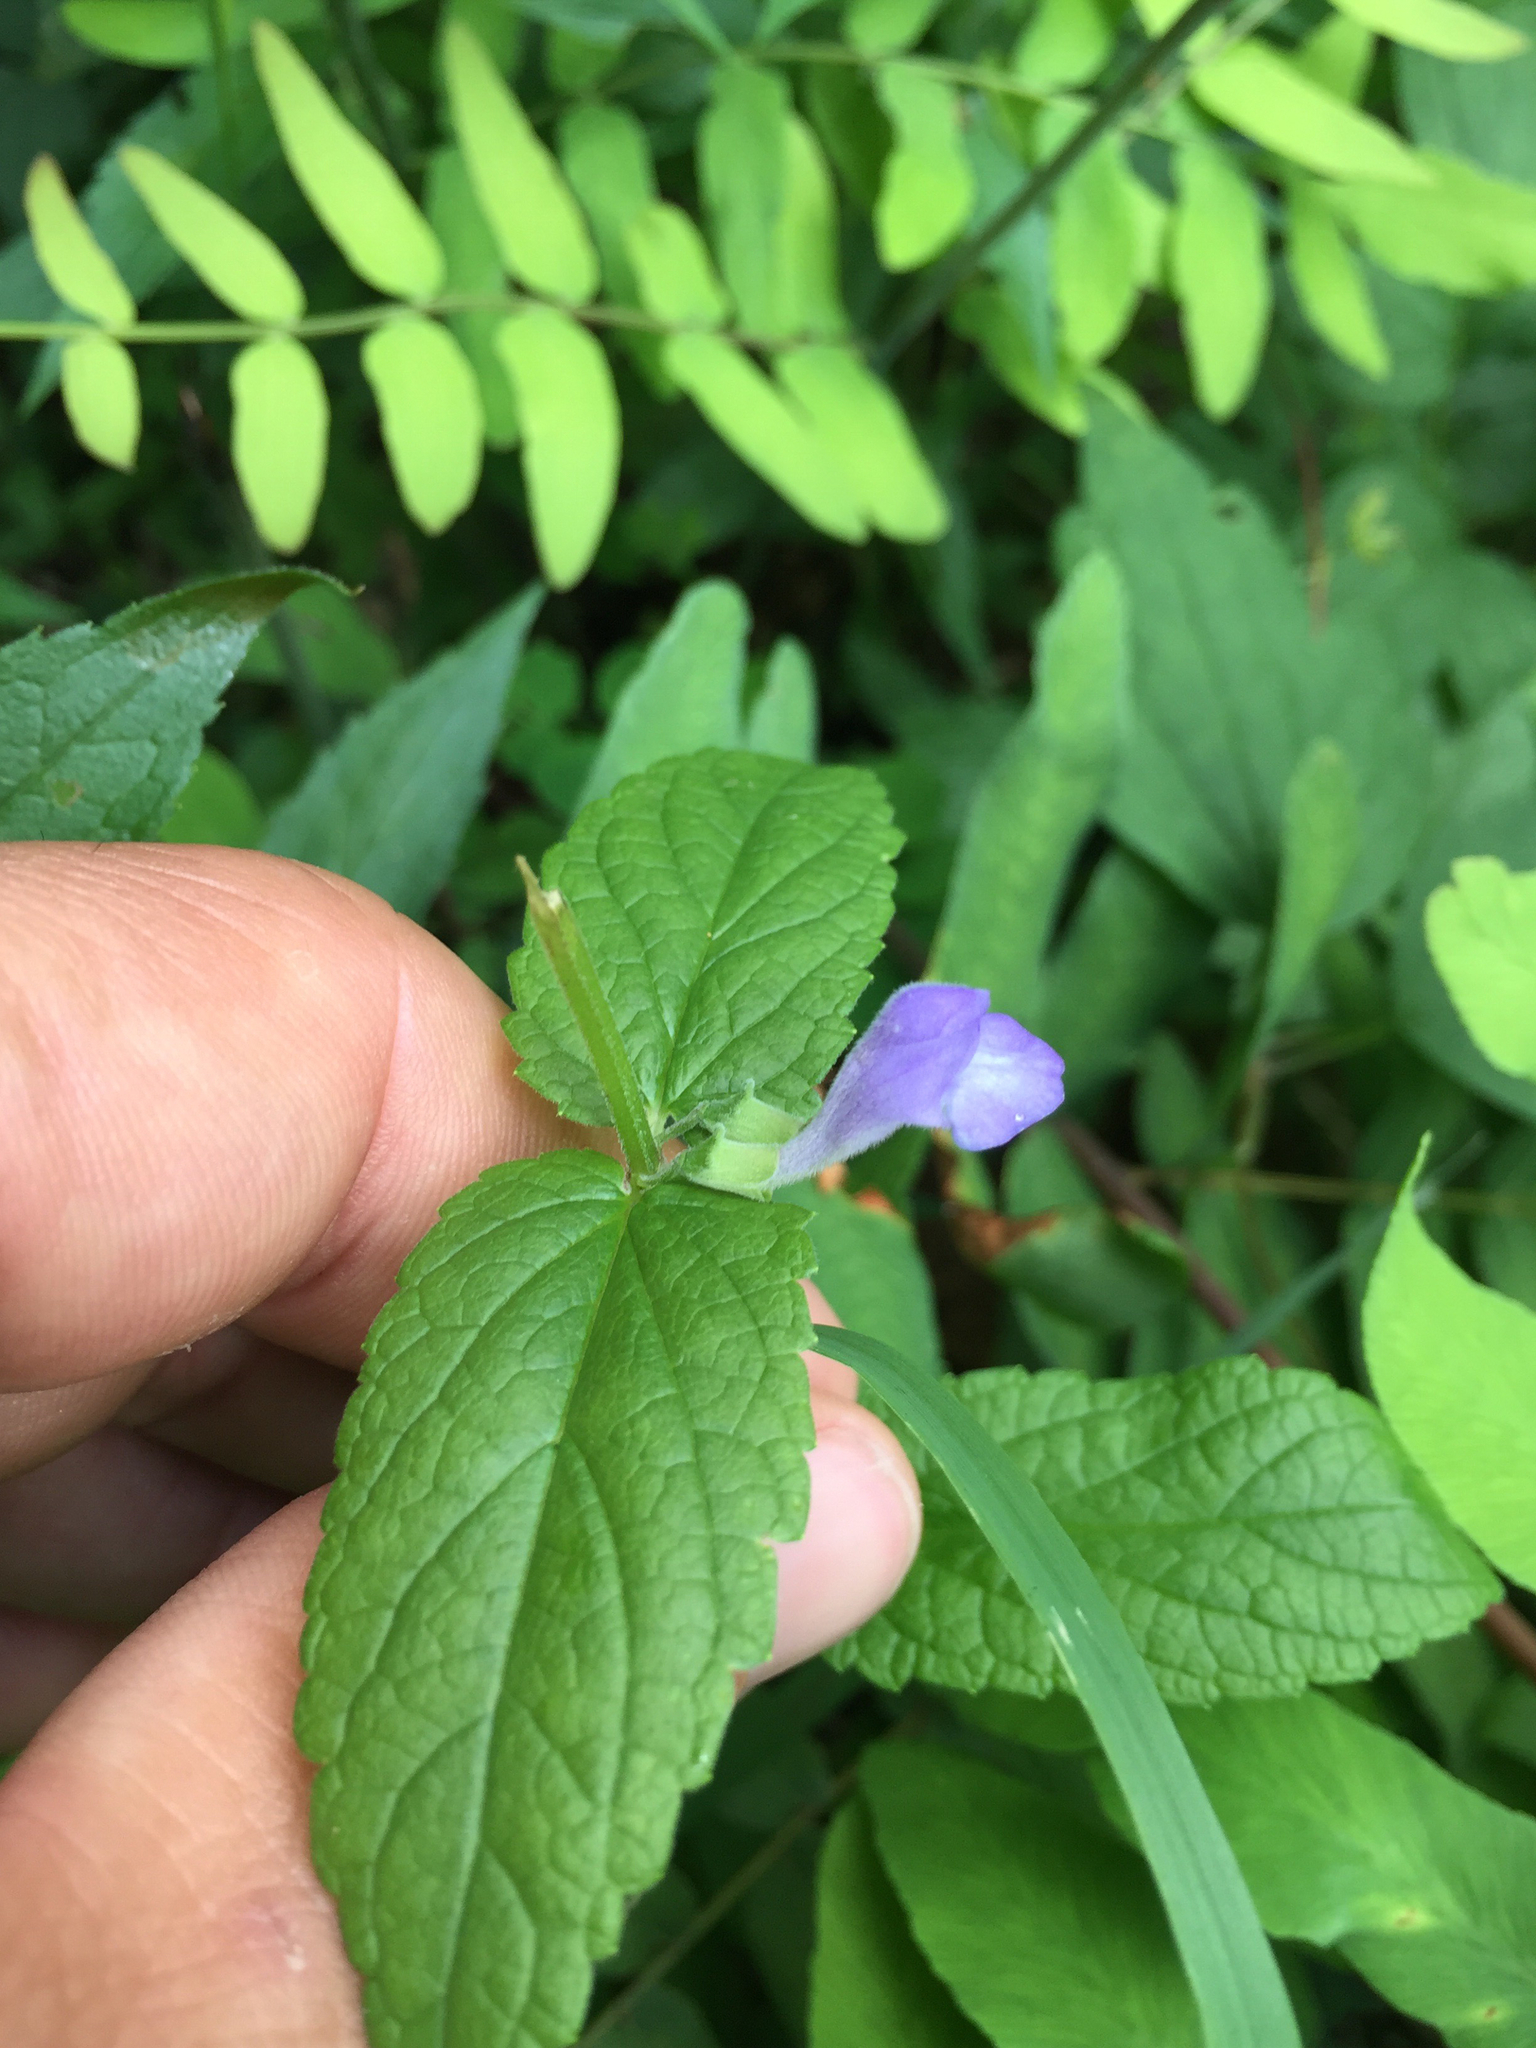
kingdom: Plantae
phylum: Tracheophyta
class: Magnoliopsida
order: Lamiales
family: Lamiaceae
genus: Scutellaria
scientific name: Scutellaria galericulata
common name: Skullcap
